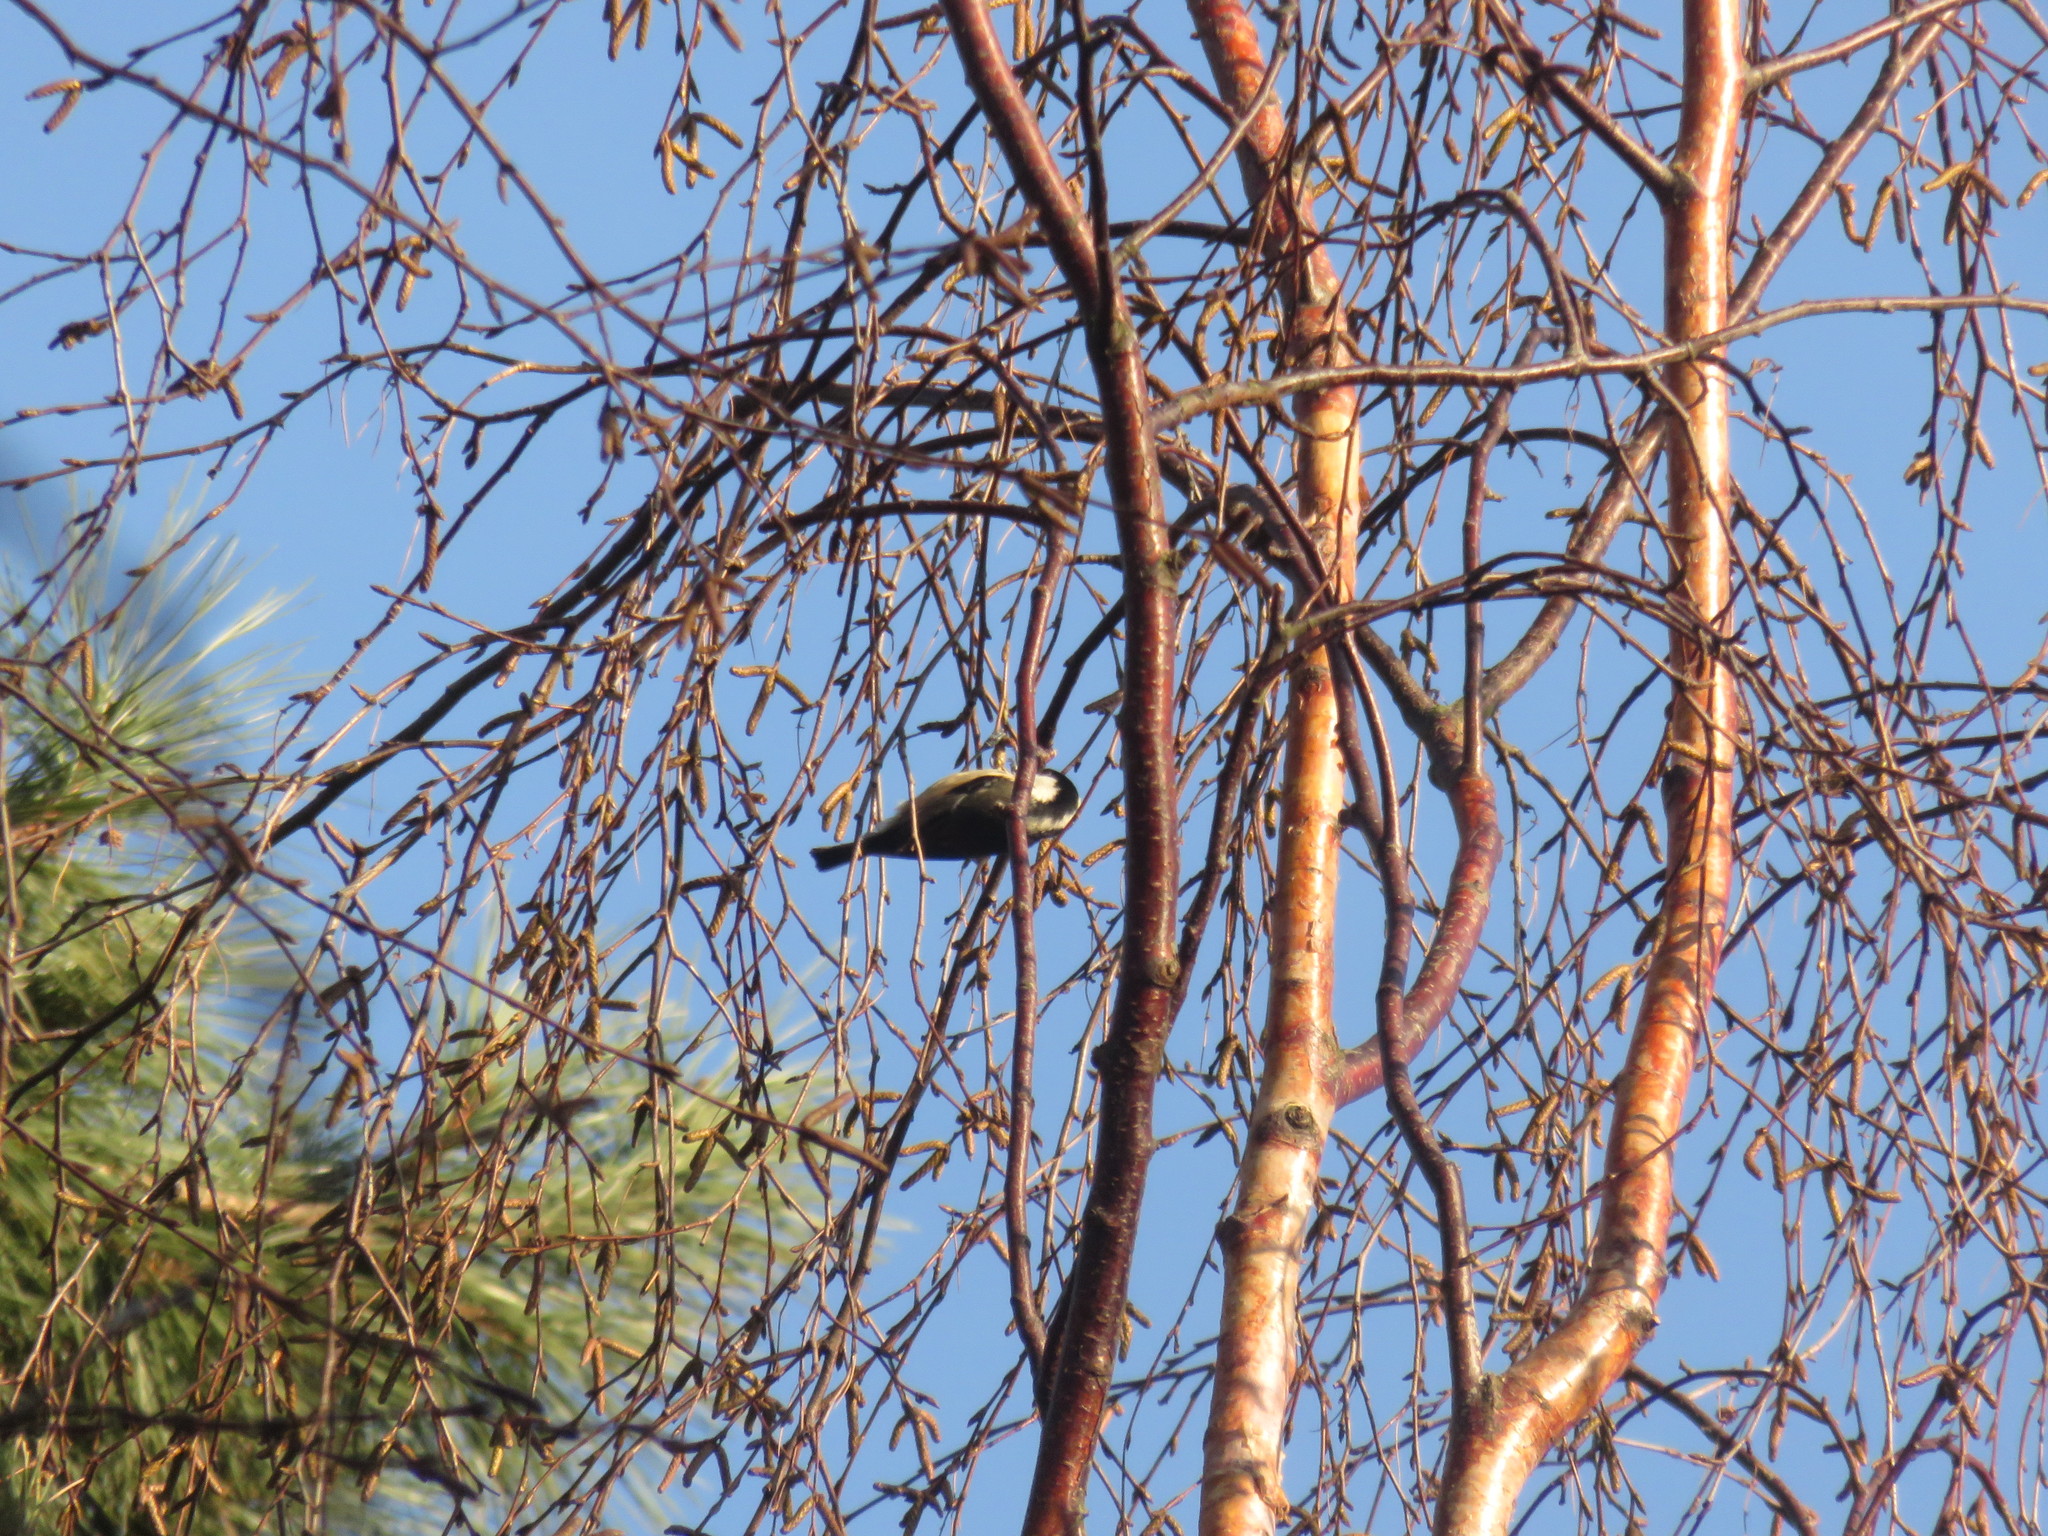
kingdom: Animalia
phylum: Chordata
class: Aves
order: Passeriformes
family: Paridae
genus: Periparus
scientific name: Periparus ater
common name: Coal tit
